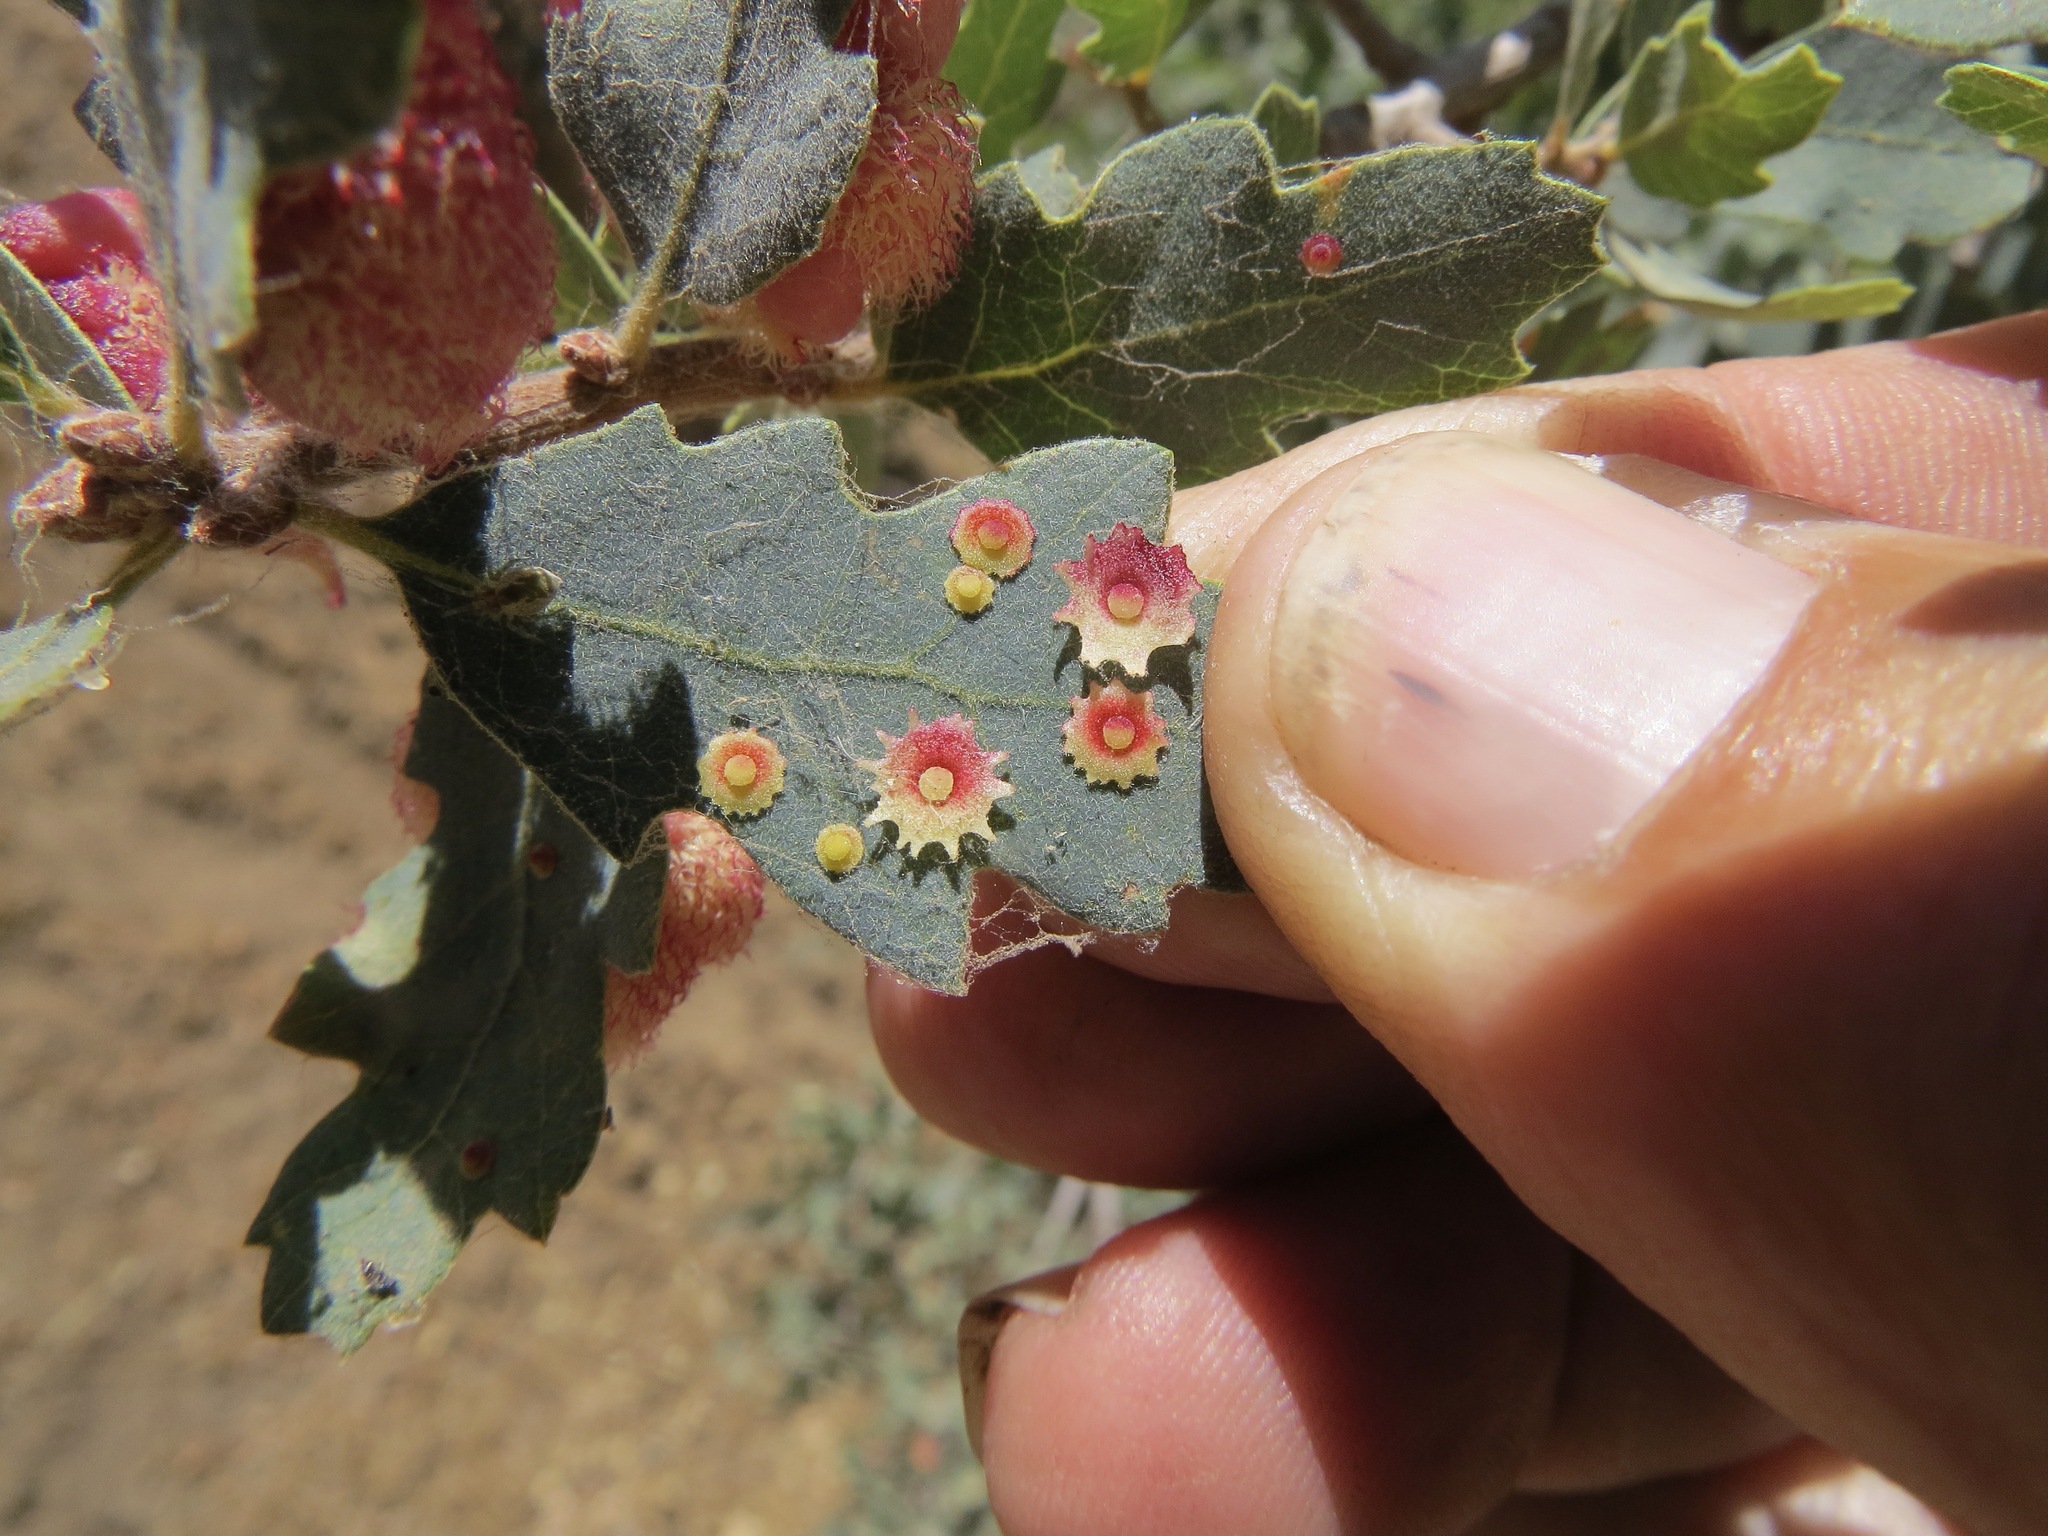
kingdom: Animalia
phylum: Arthropoda
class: Insecta
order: Hymenoptera
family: Cynipidae
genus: Andricus
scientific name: Andricus
